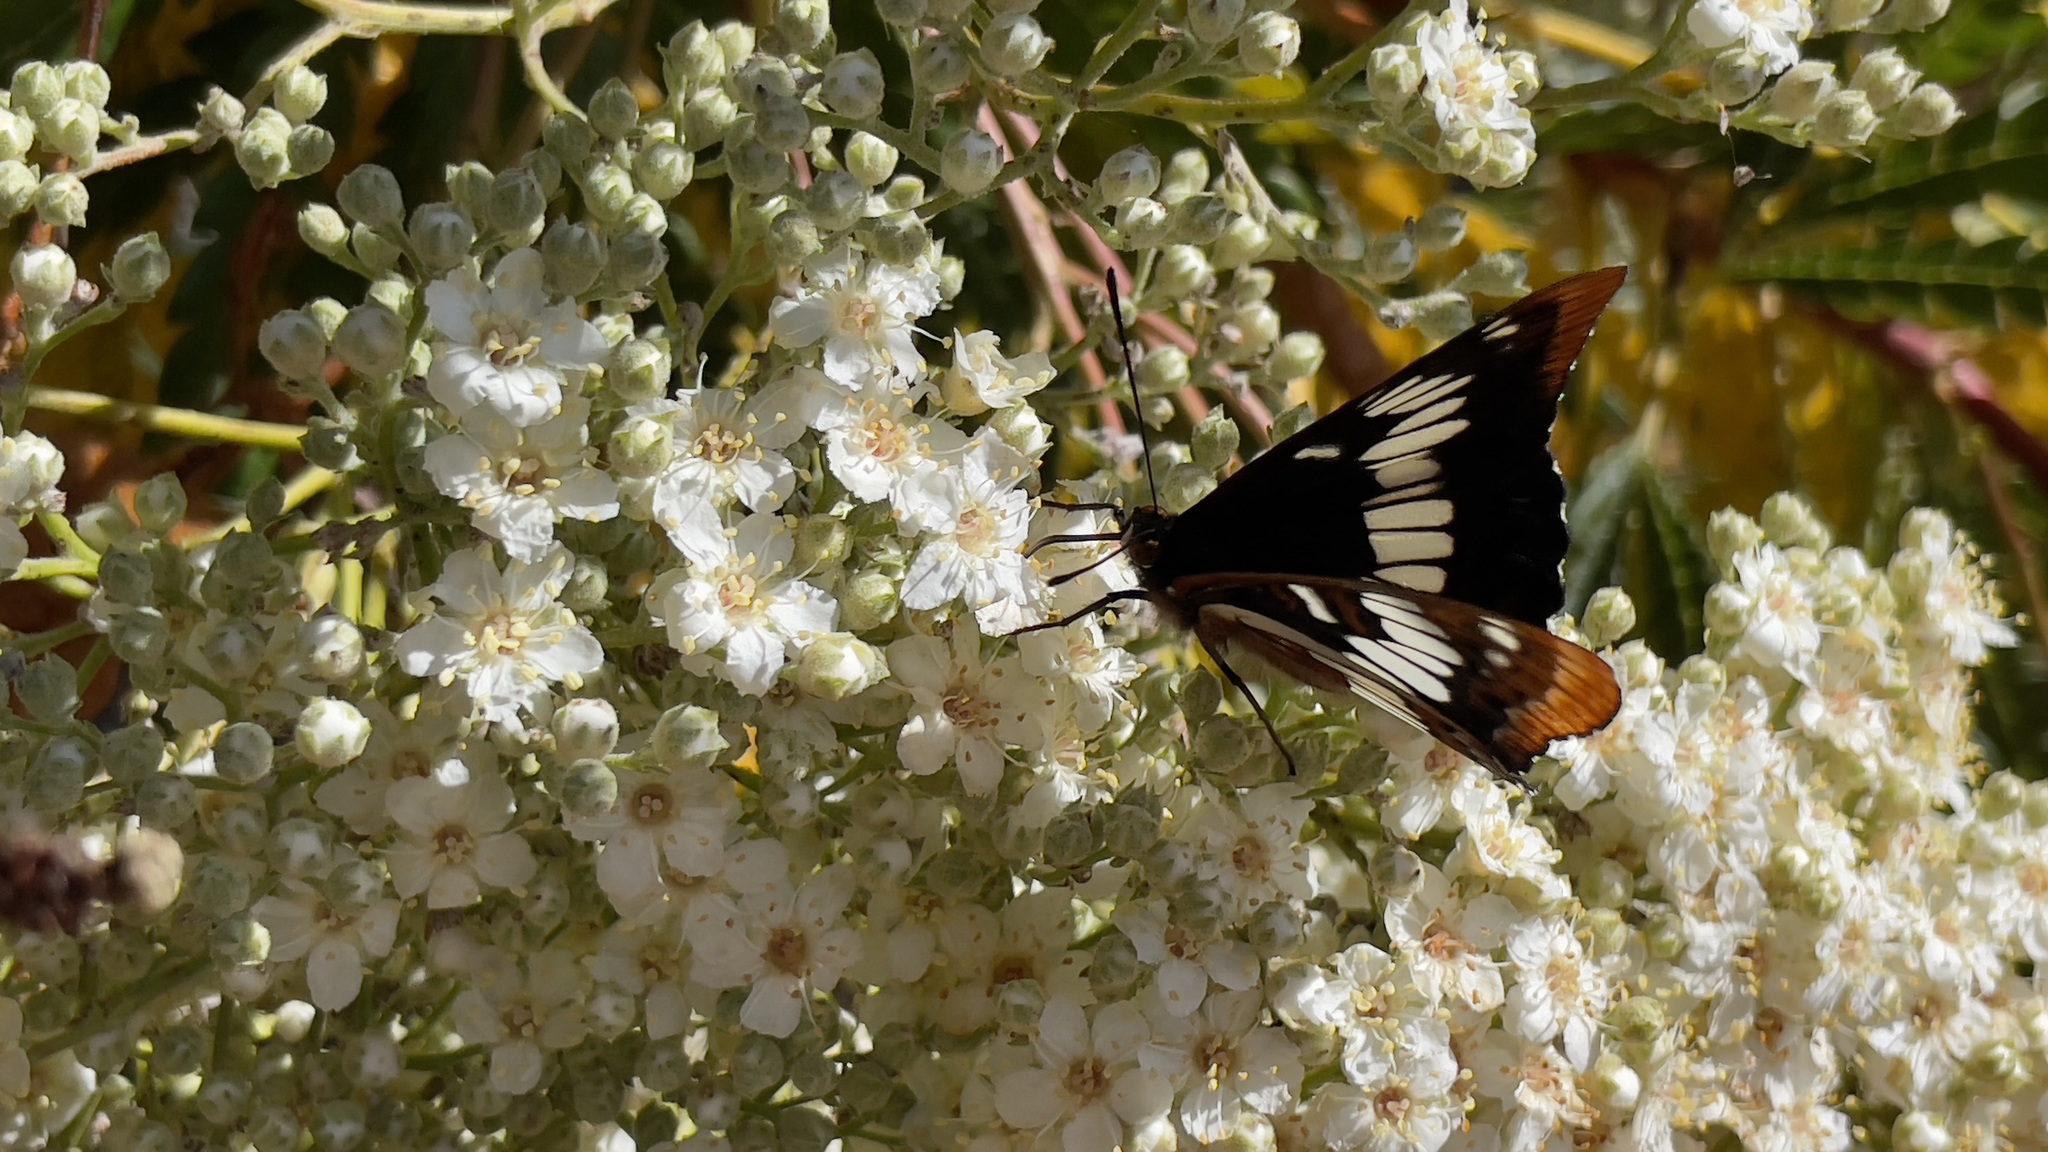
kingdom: Animalia
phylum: Arthropoda
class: Insecta
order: Lepidoptera
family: Nymphalidae
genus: Limenitis
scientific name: Limenitis lorquini
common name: Lorquin's admiral
